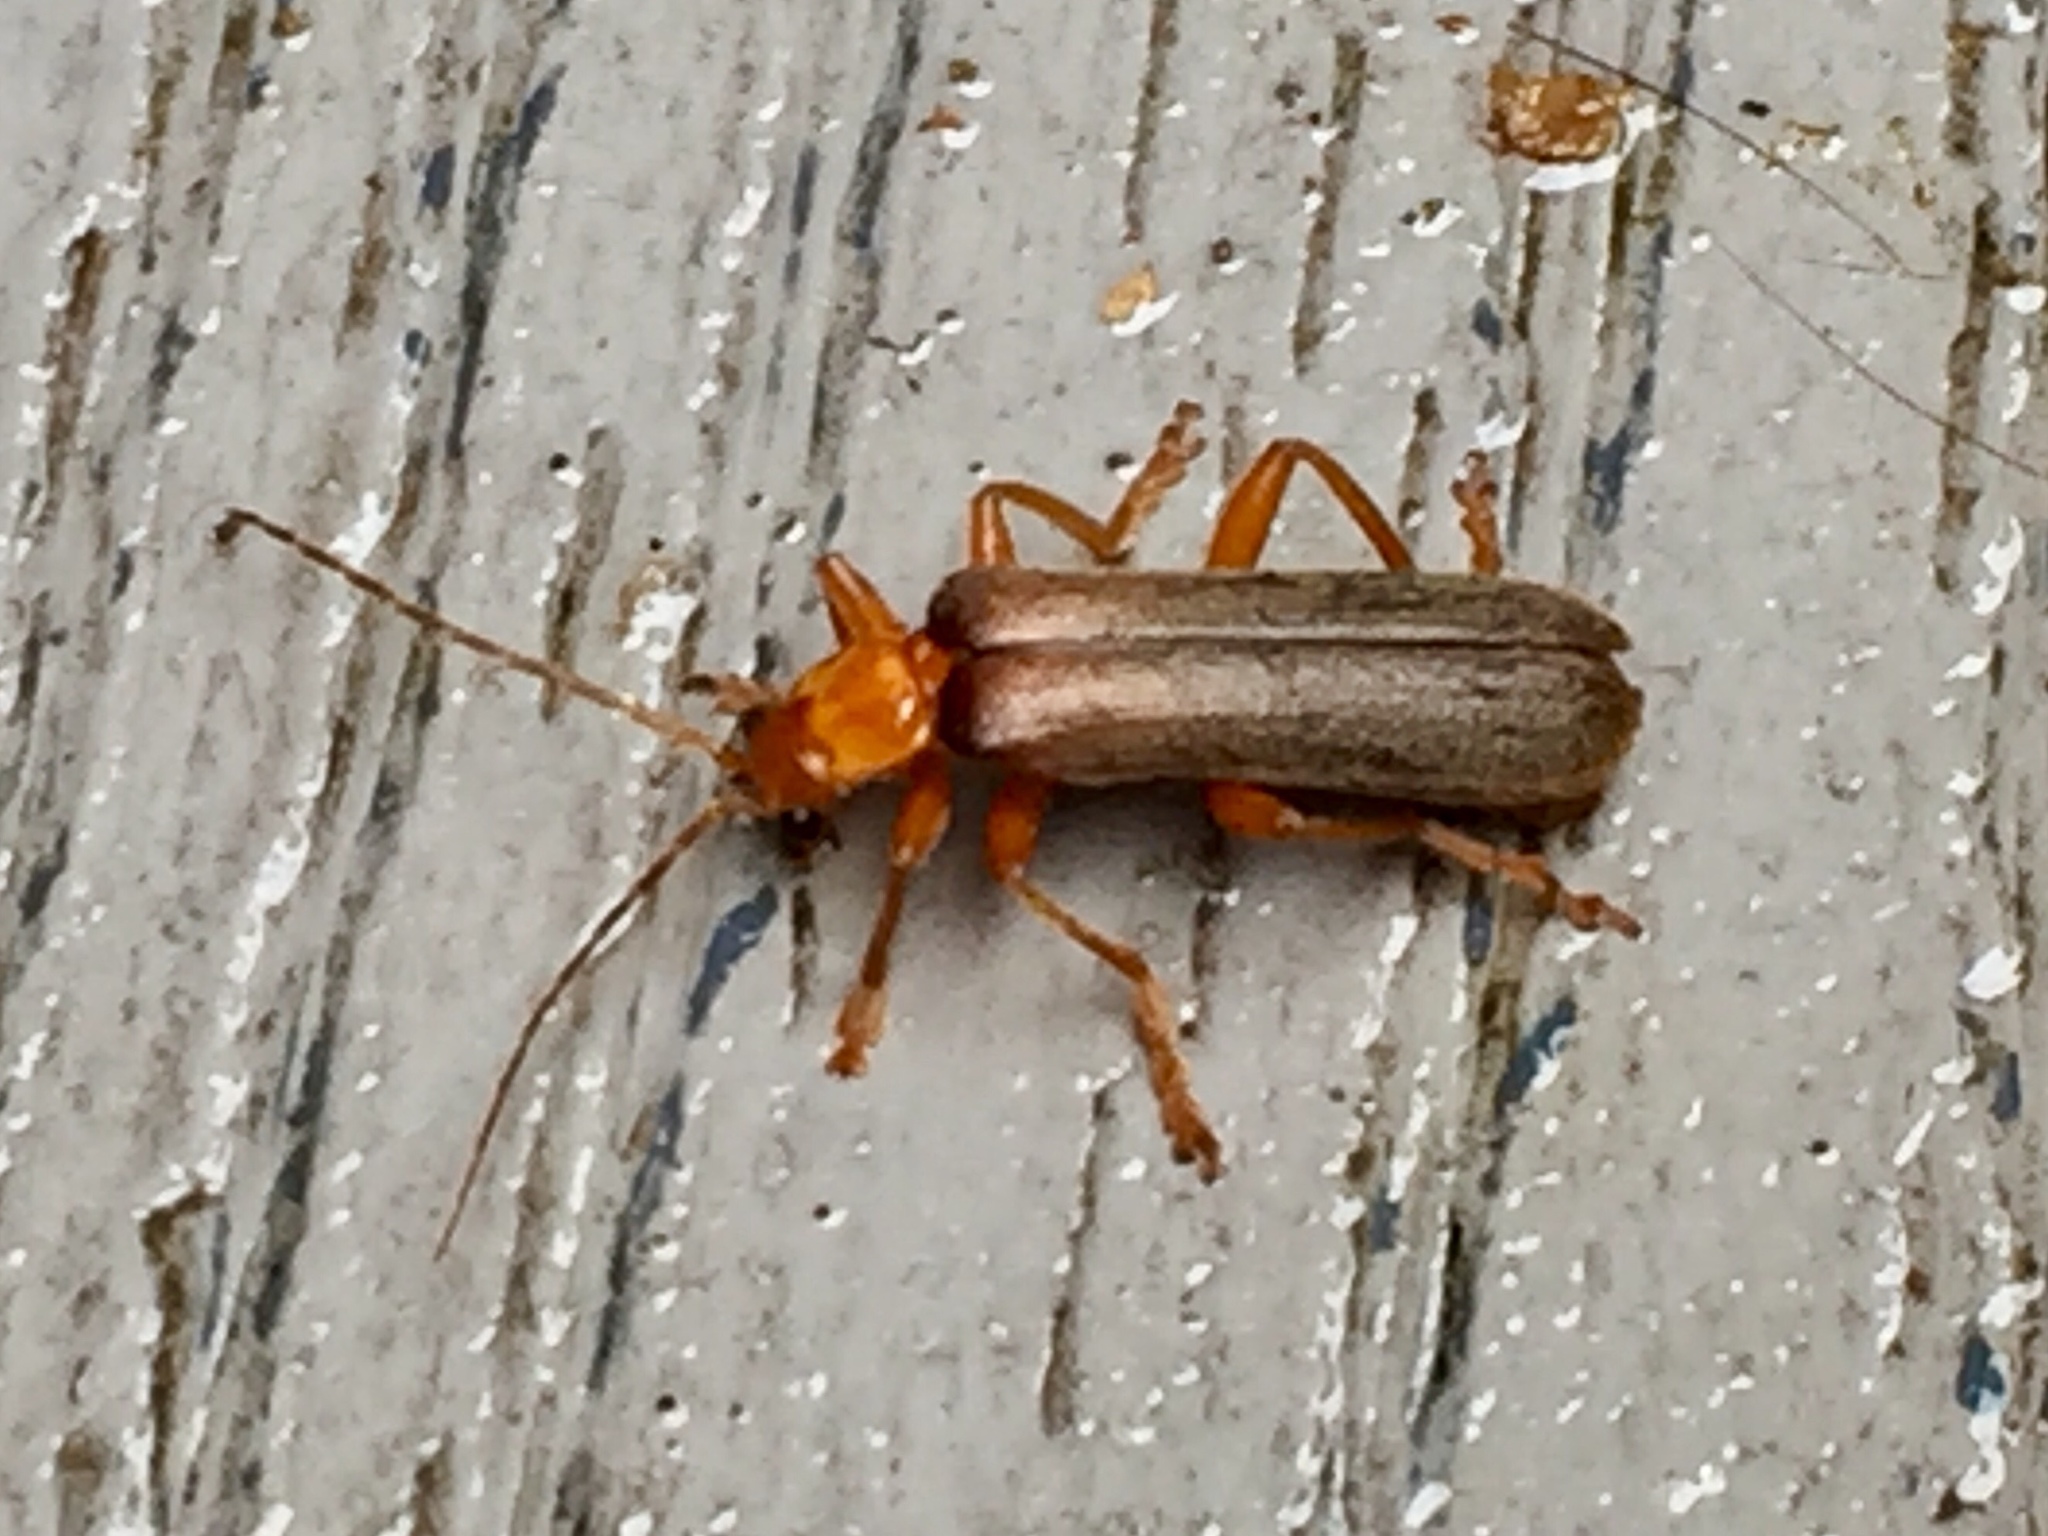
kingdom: Animalia
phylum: Arthropoda
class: Insecta
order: Coleoptera
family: Cantharidae
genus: Pacificanthia
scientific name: Pacificanthia rotundicollis
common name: Brown leatherwing beetle
